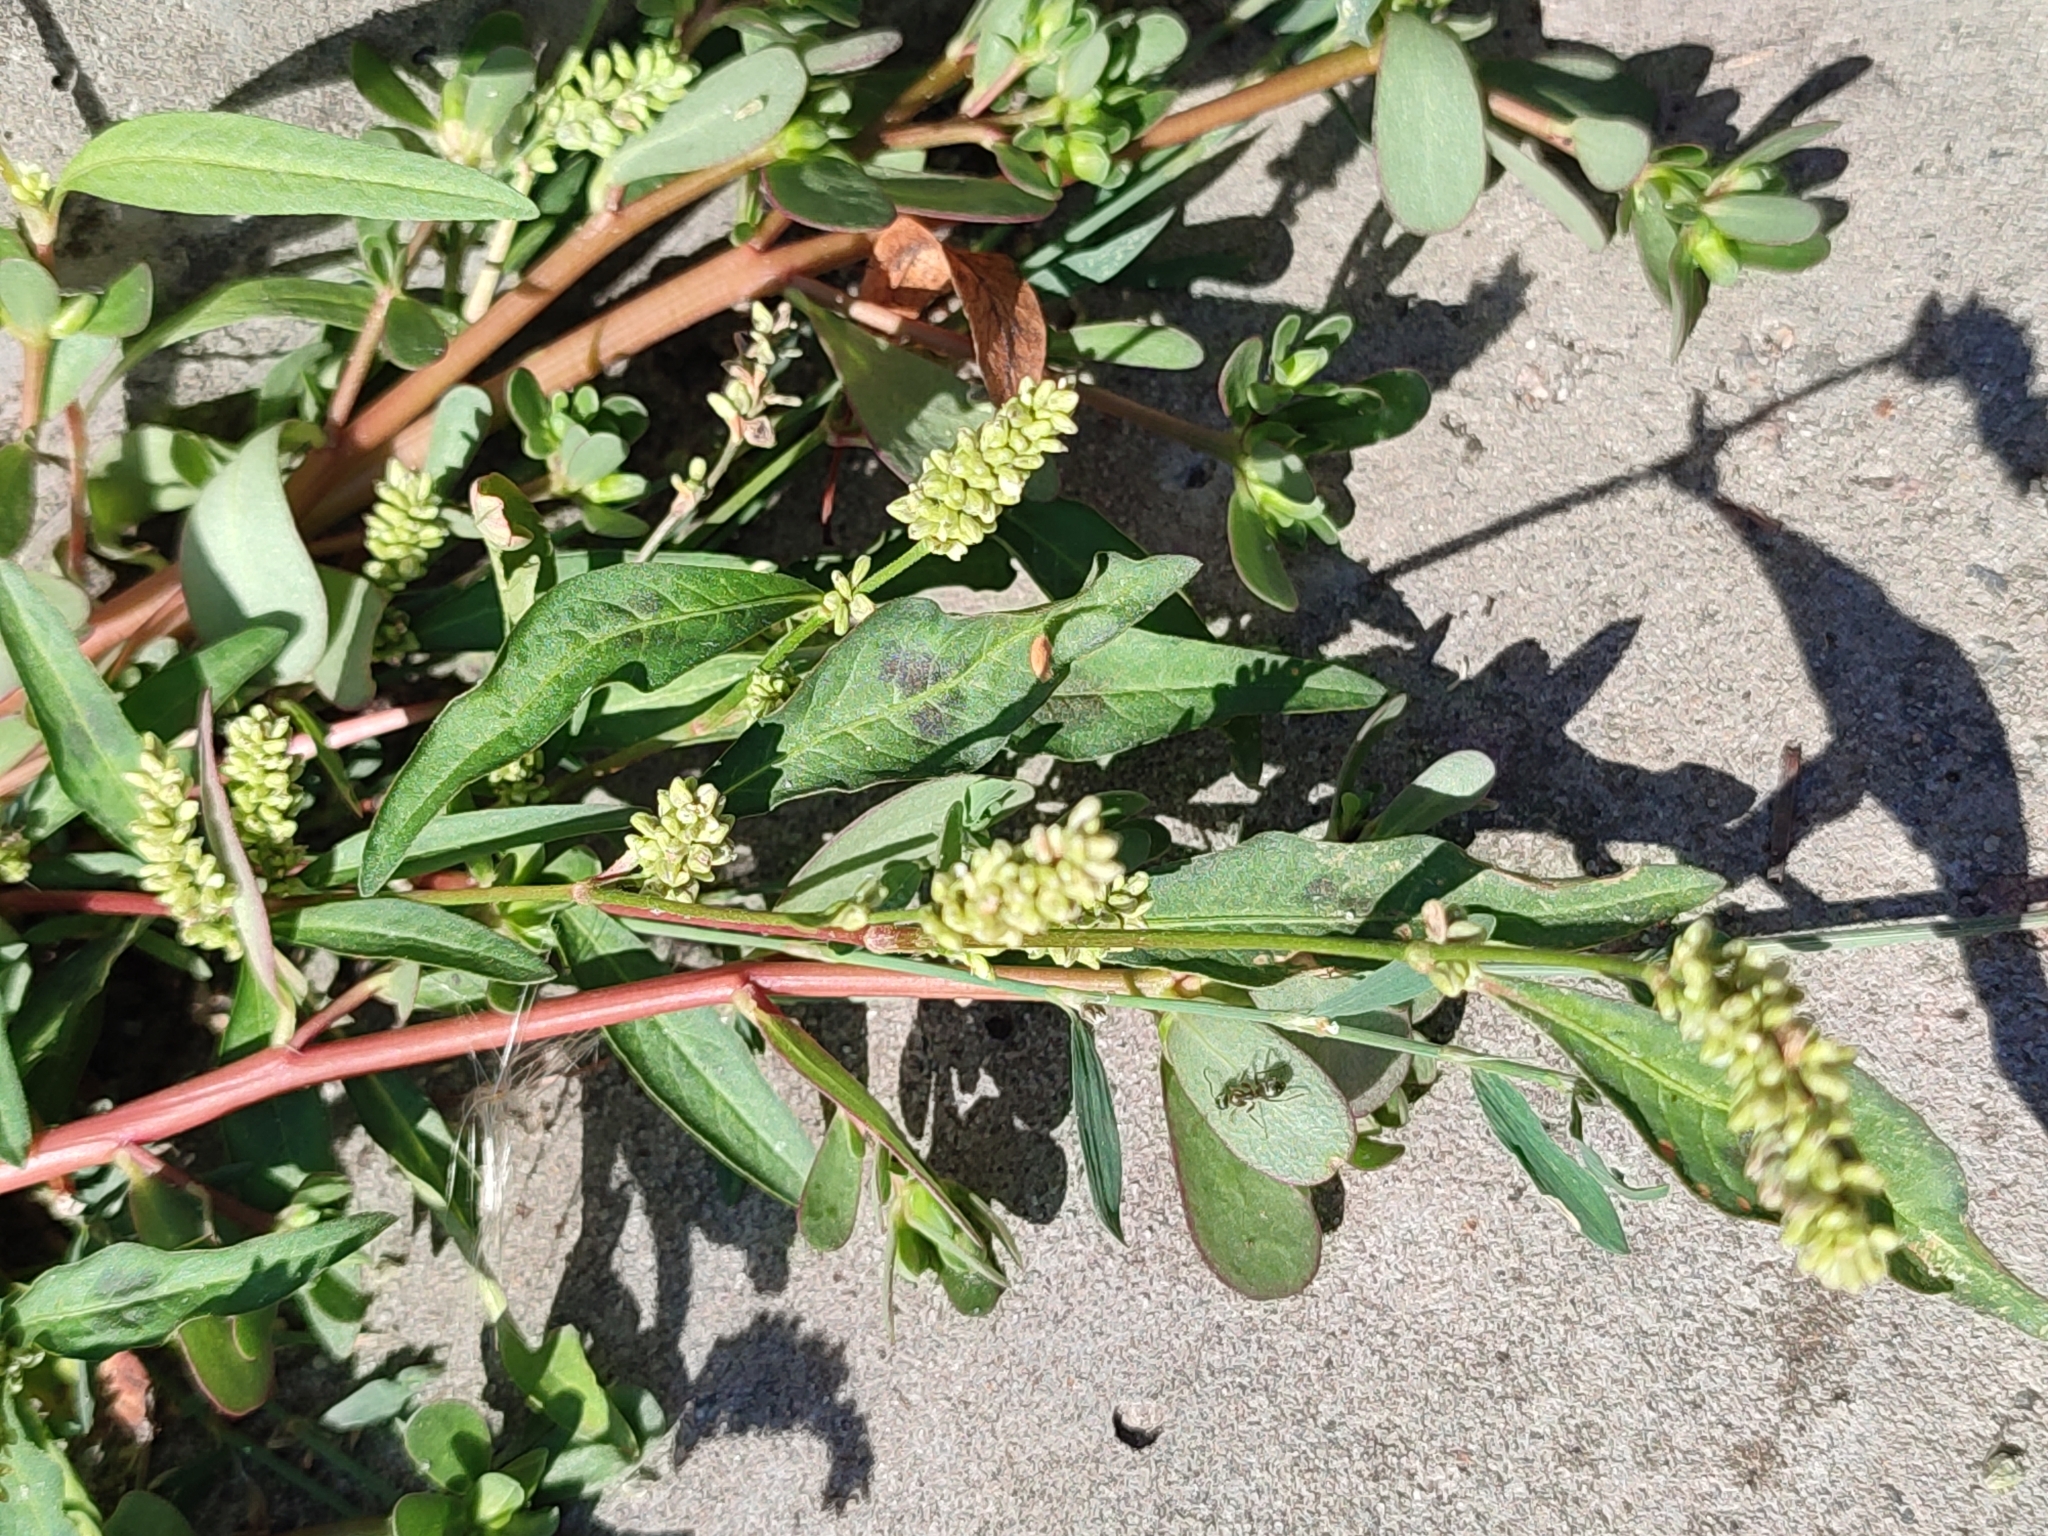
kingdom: Plantae
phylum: Tracheophyta
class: Magnoliopsida
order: Caryophyllales
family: Polygonaceae
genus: Persicaria
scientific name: Persicaria lapathifolia
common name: Curlytop knotweed
